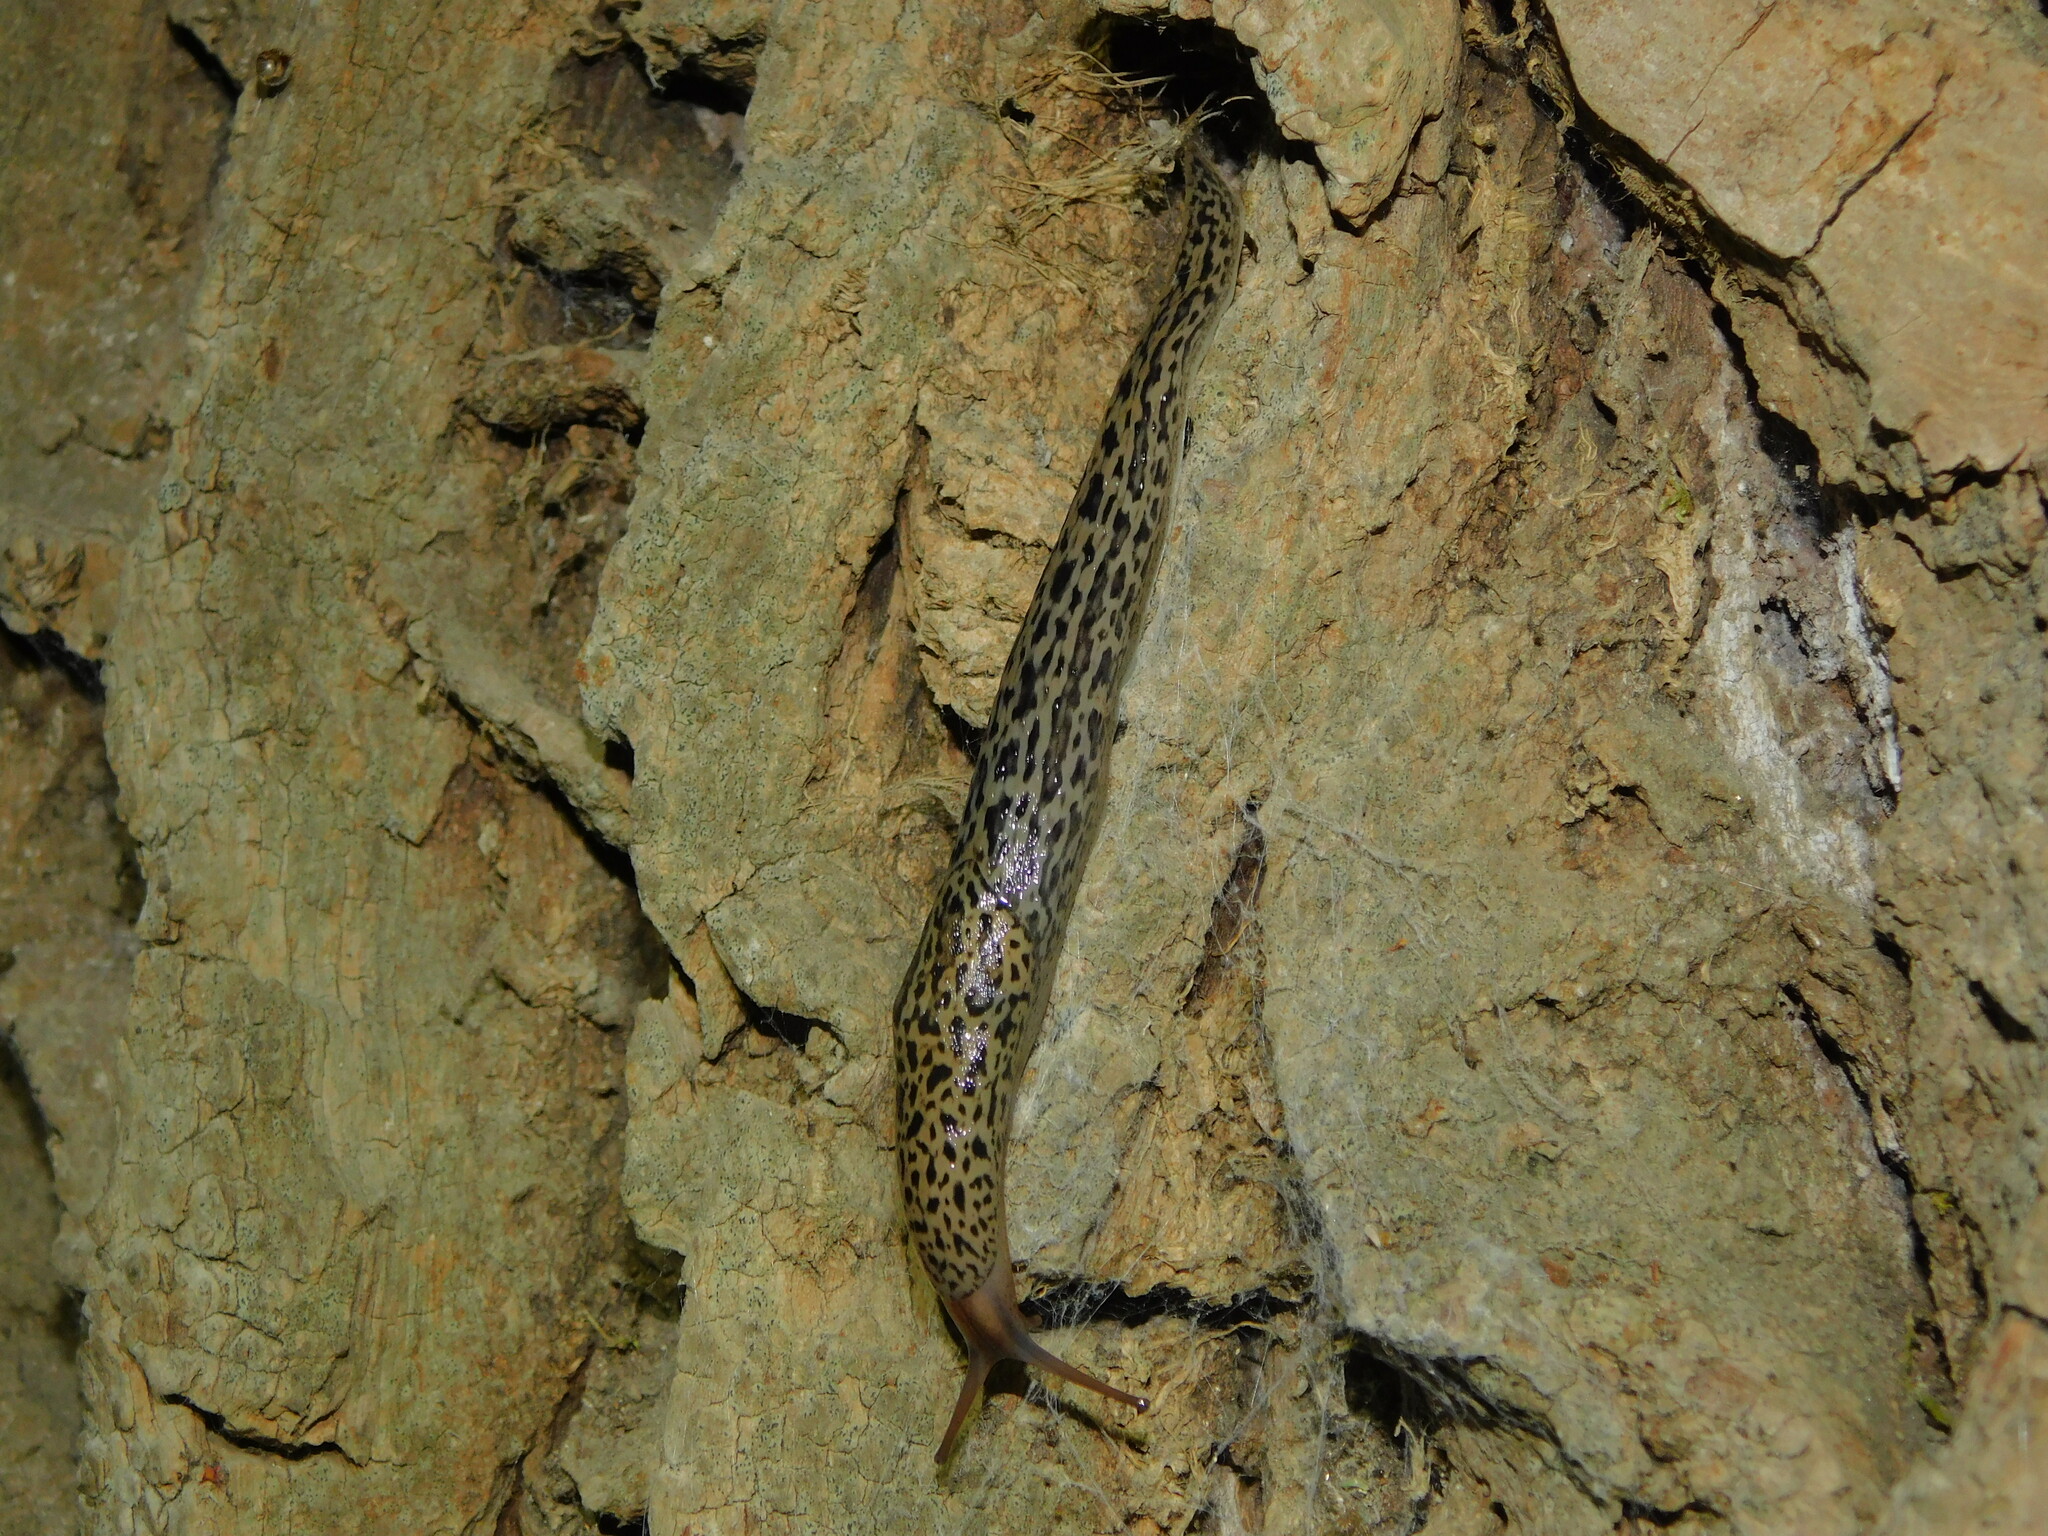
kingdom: Animalia
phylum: Mollusca
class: Gastropoda
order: Stylommatophora
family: Limacidae
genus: Limax
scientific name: Limax maximus
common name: Great grey slug
